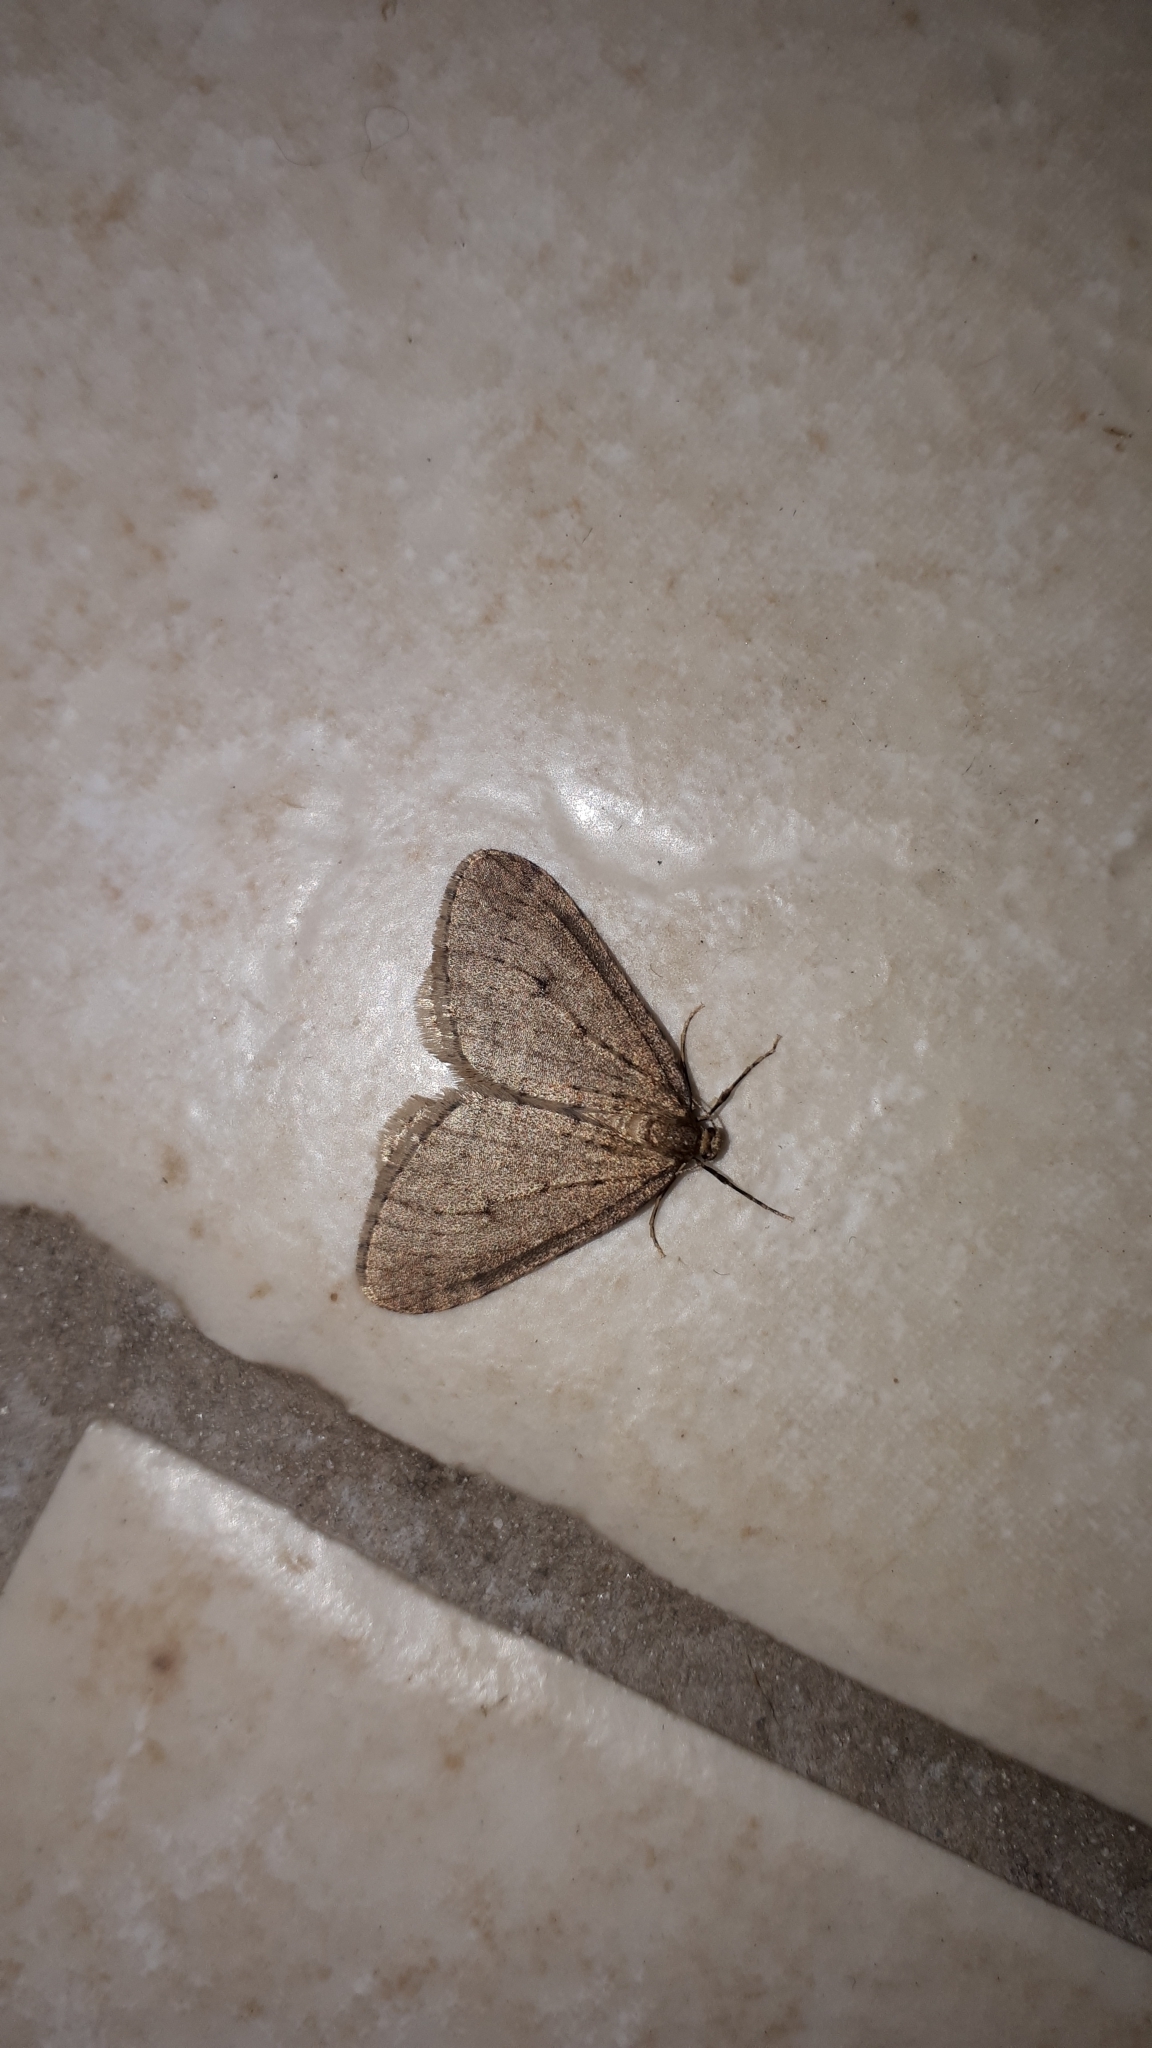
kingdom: Animalia
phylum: Arthropoda
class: Insecta
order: Lepidoptera
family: Geometridae
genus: Operophtera
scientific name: Operophtera brumata
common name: Winter moth
